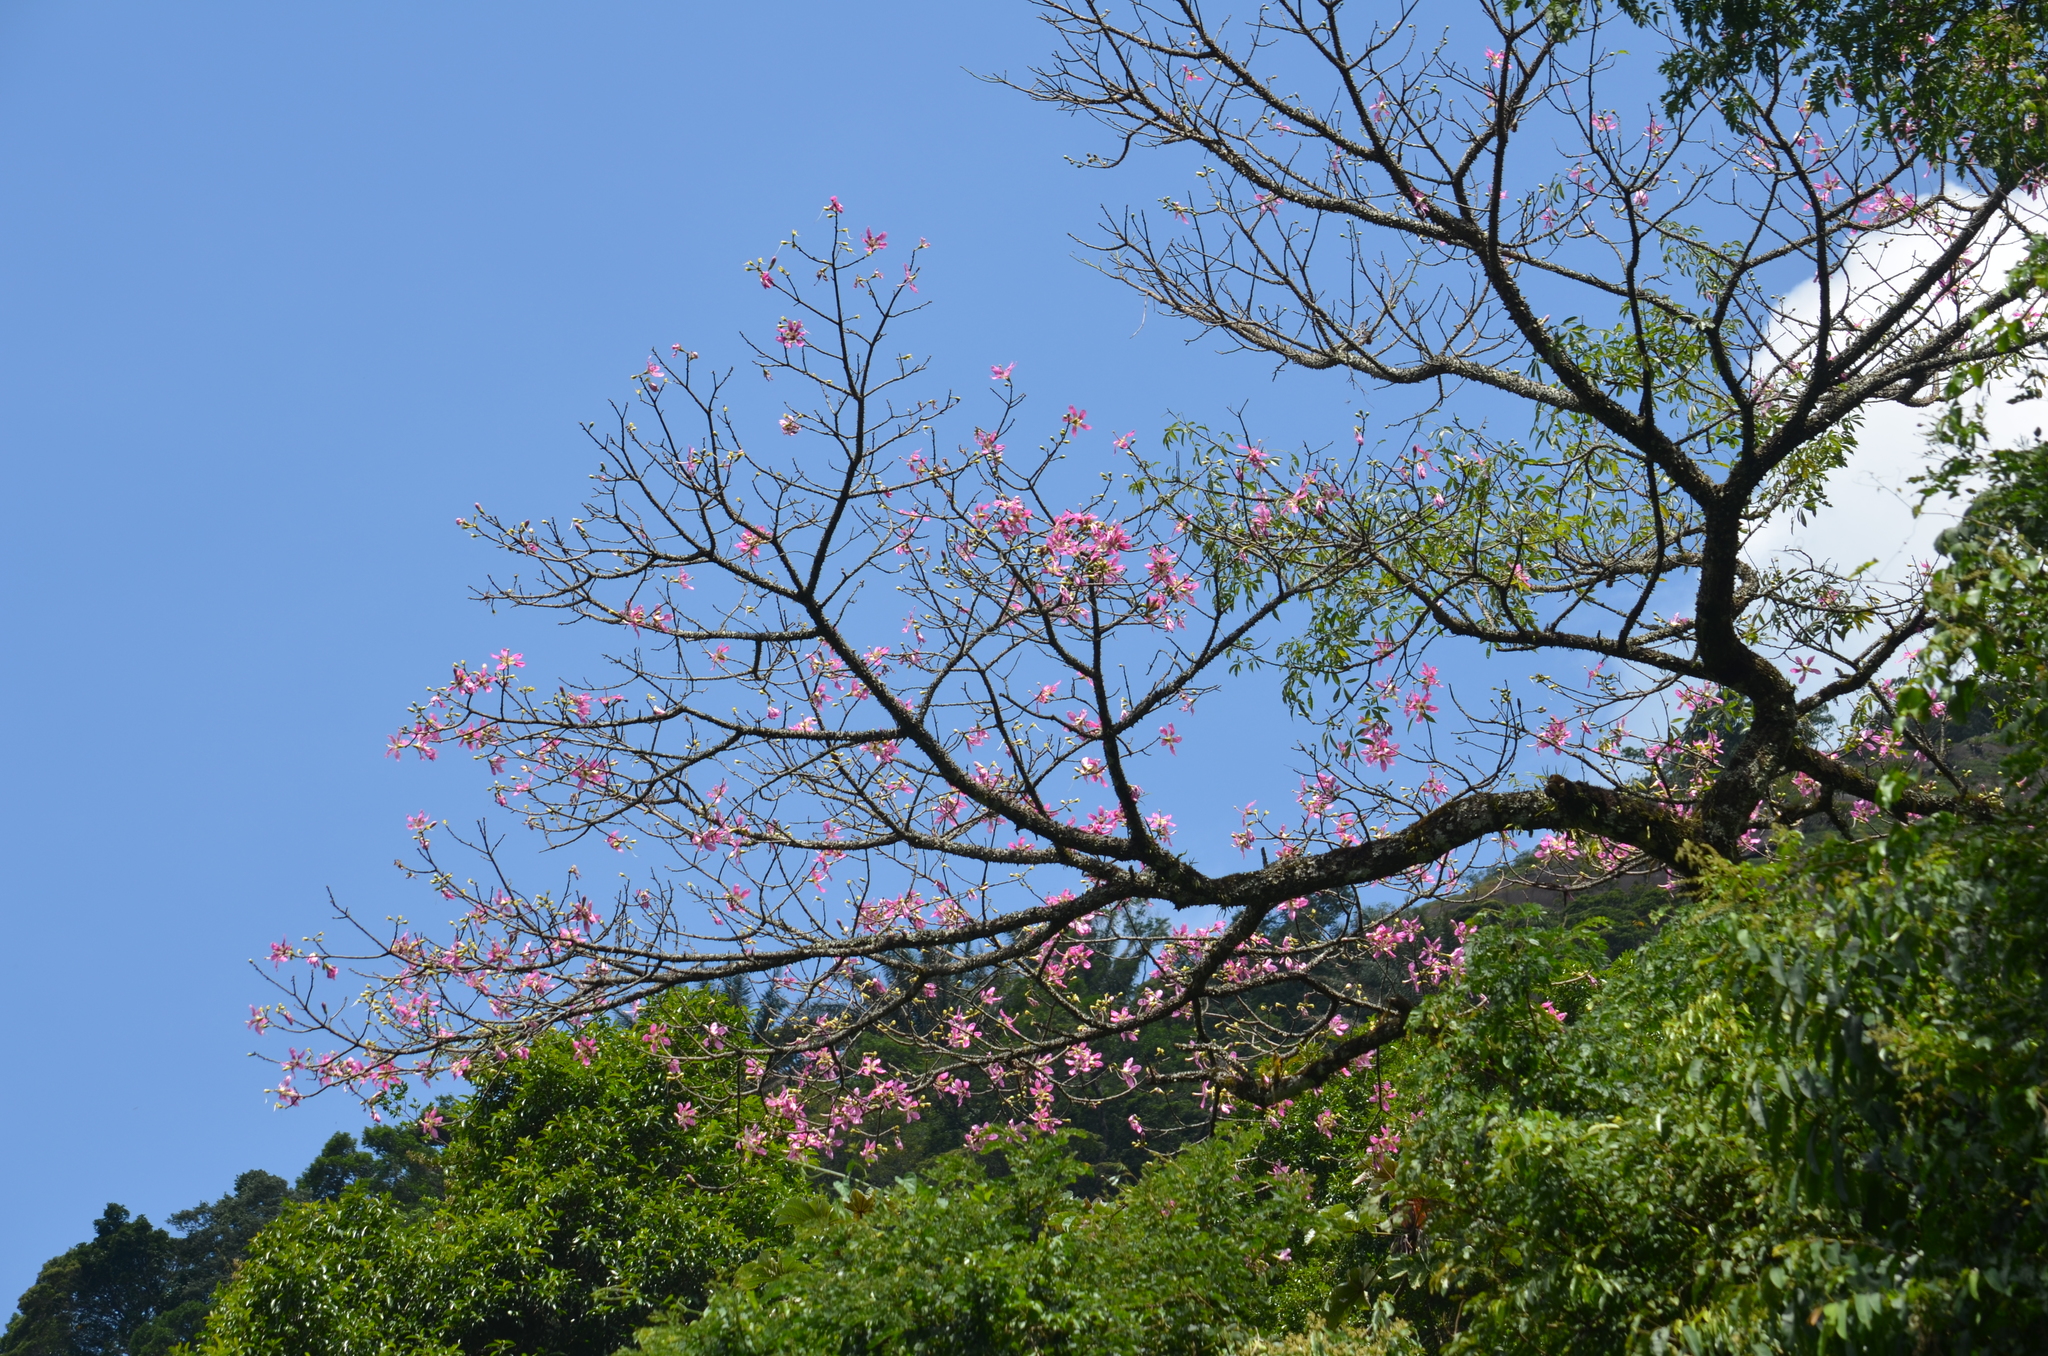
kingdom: Plantae
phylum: Tracheophyta
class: Magnoliopsida
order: Malvales
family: Malvaceae
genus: Ceiba
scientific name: Ceiba speciosa
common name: Silk-floss tree
